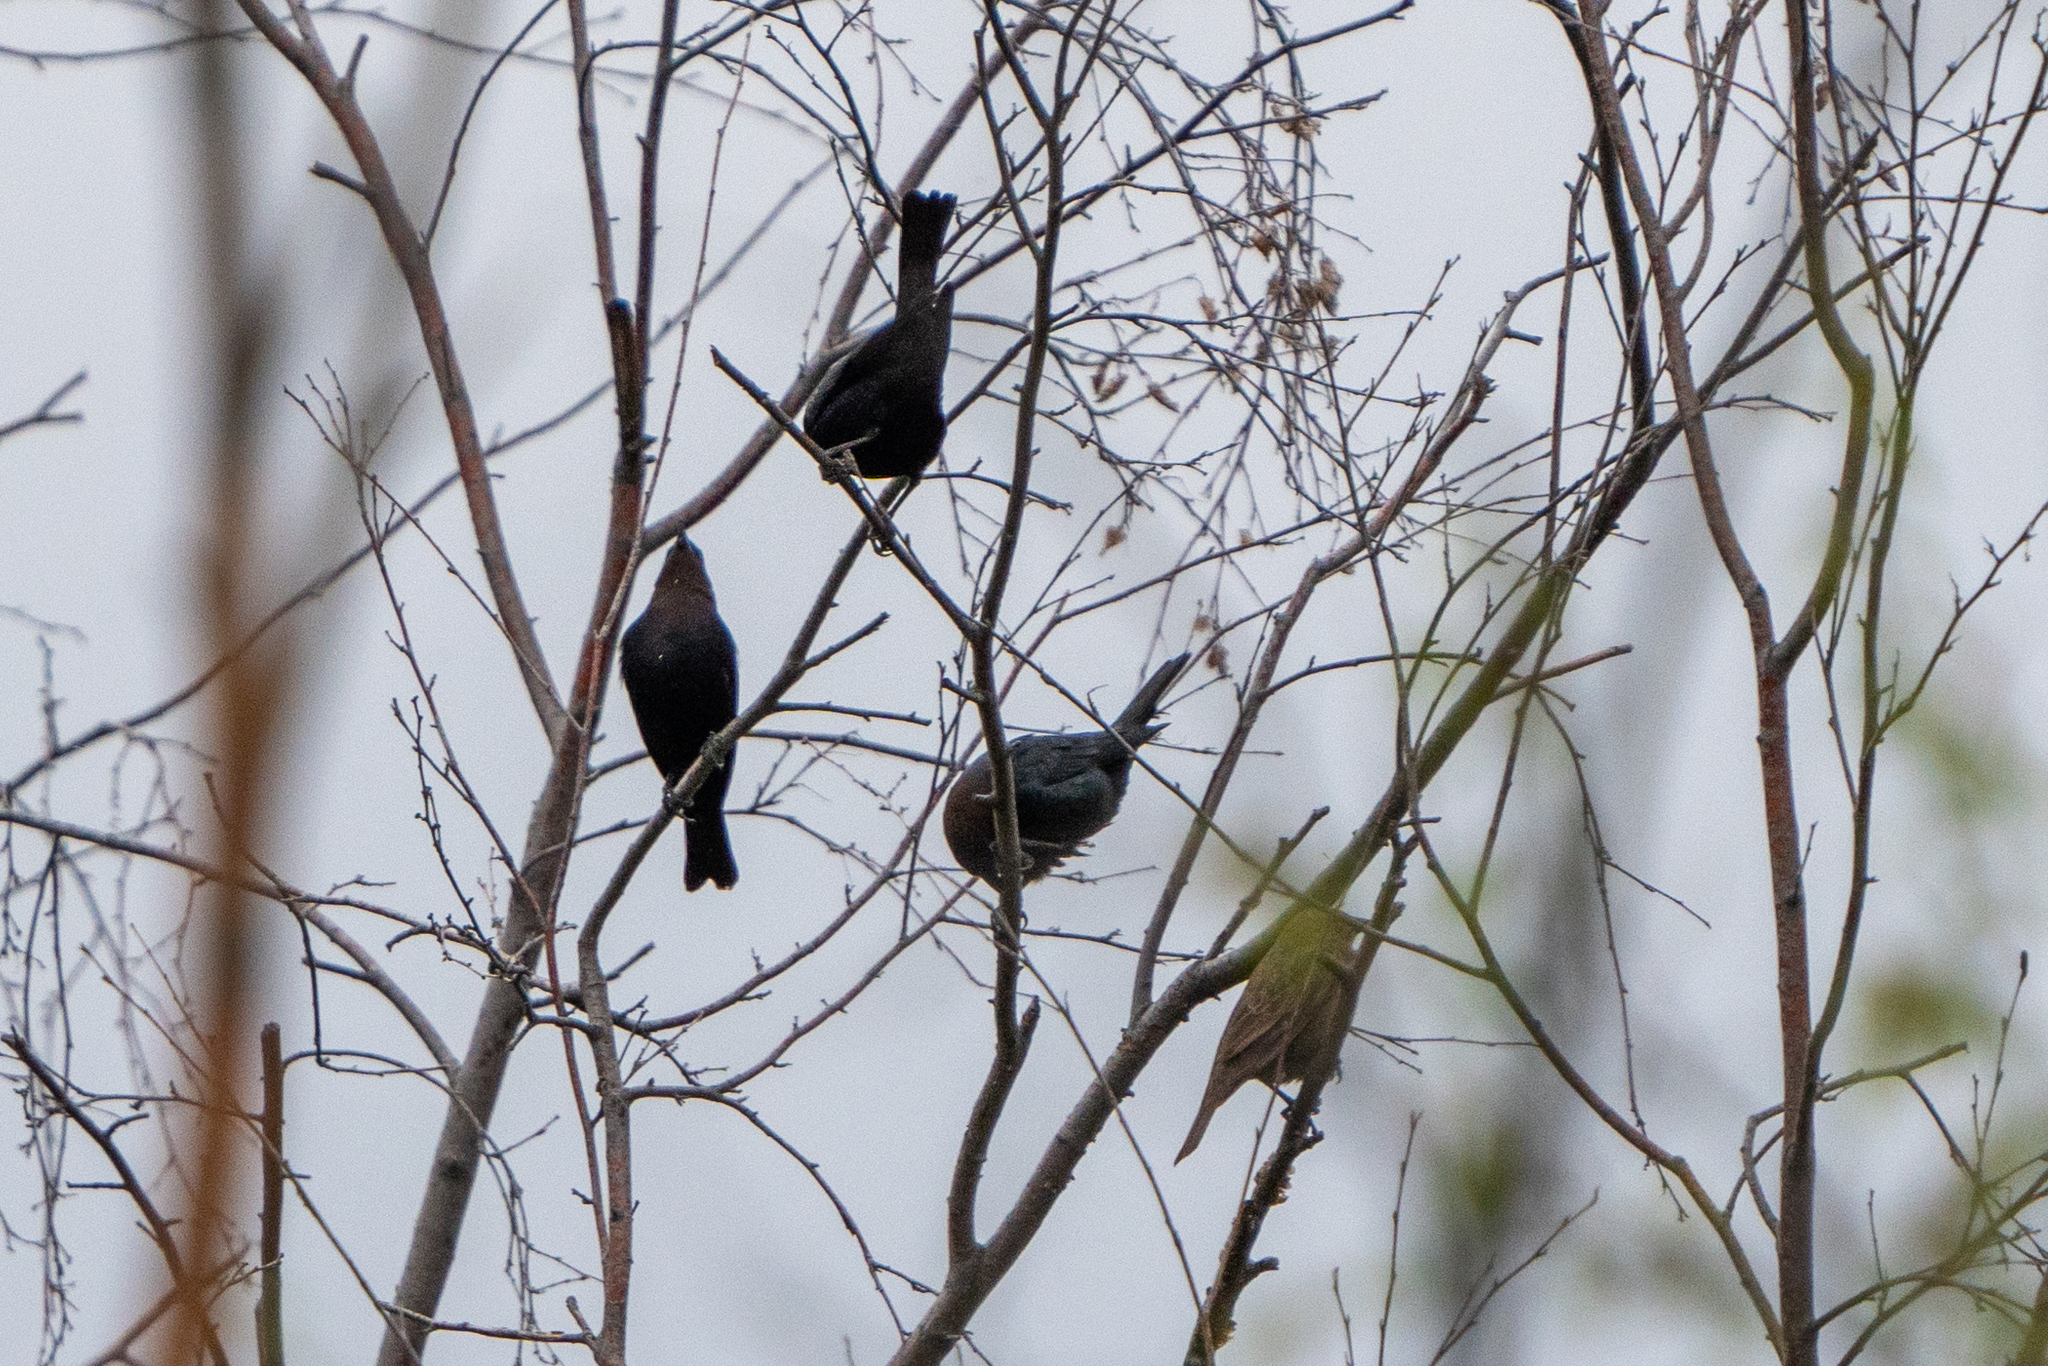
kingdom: Animalia
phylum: Chordata
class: Aves
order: Passeriformes
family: Icteridae
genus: Molothrus
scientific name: Molothrus ater
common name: Brown-headed cowbird
